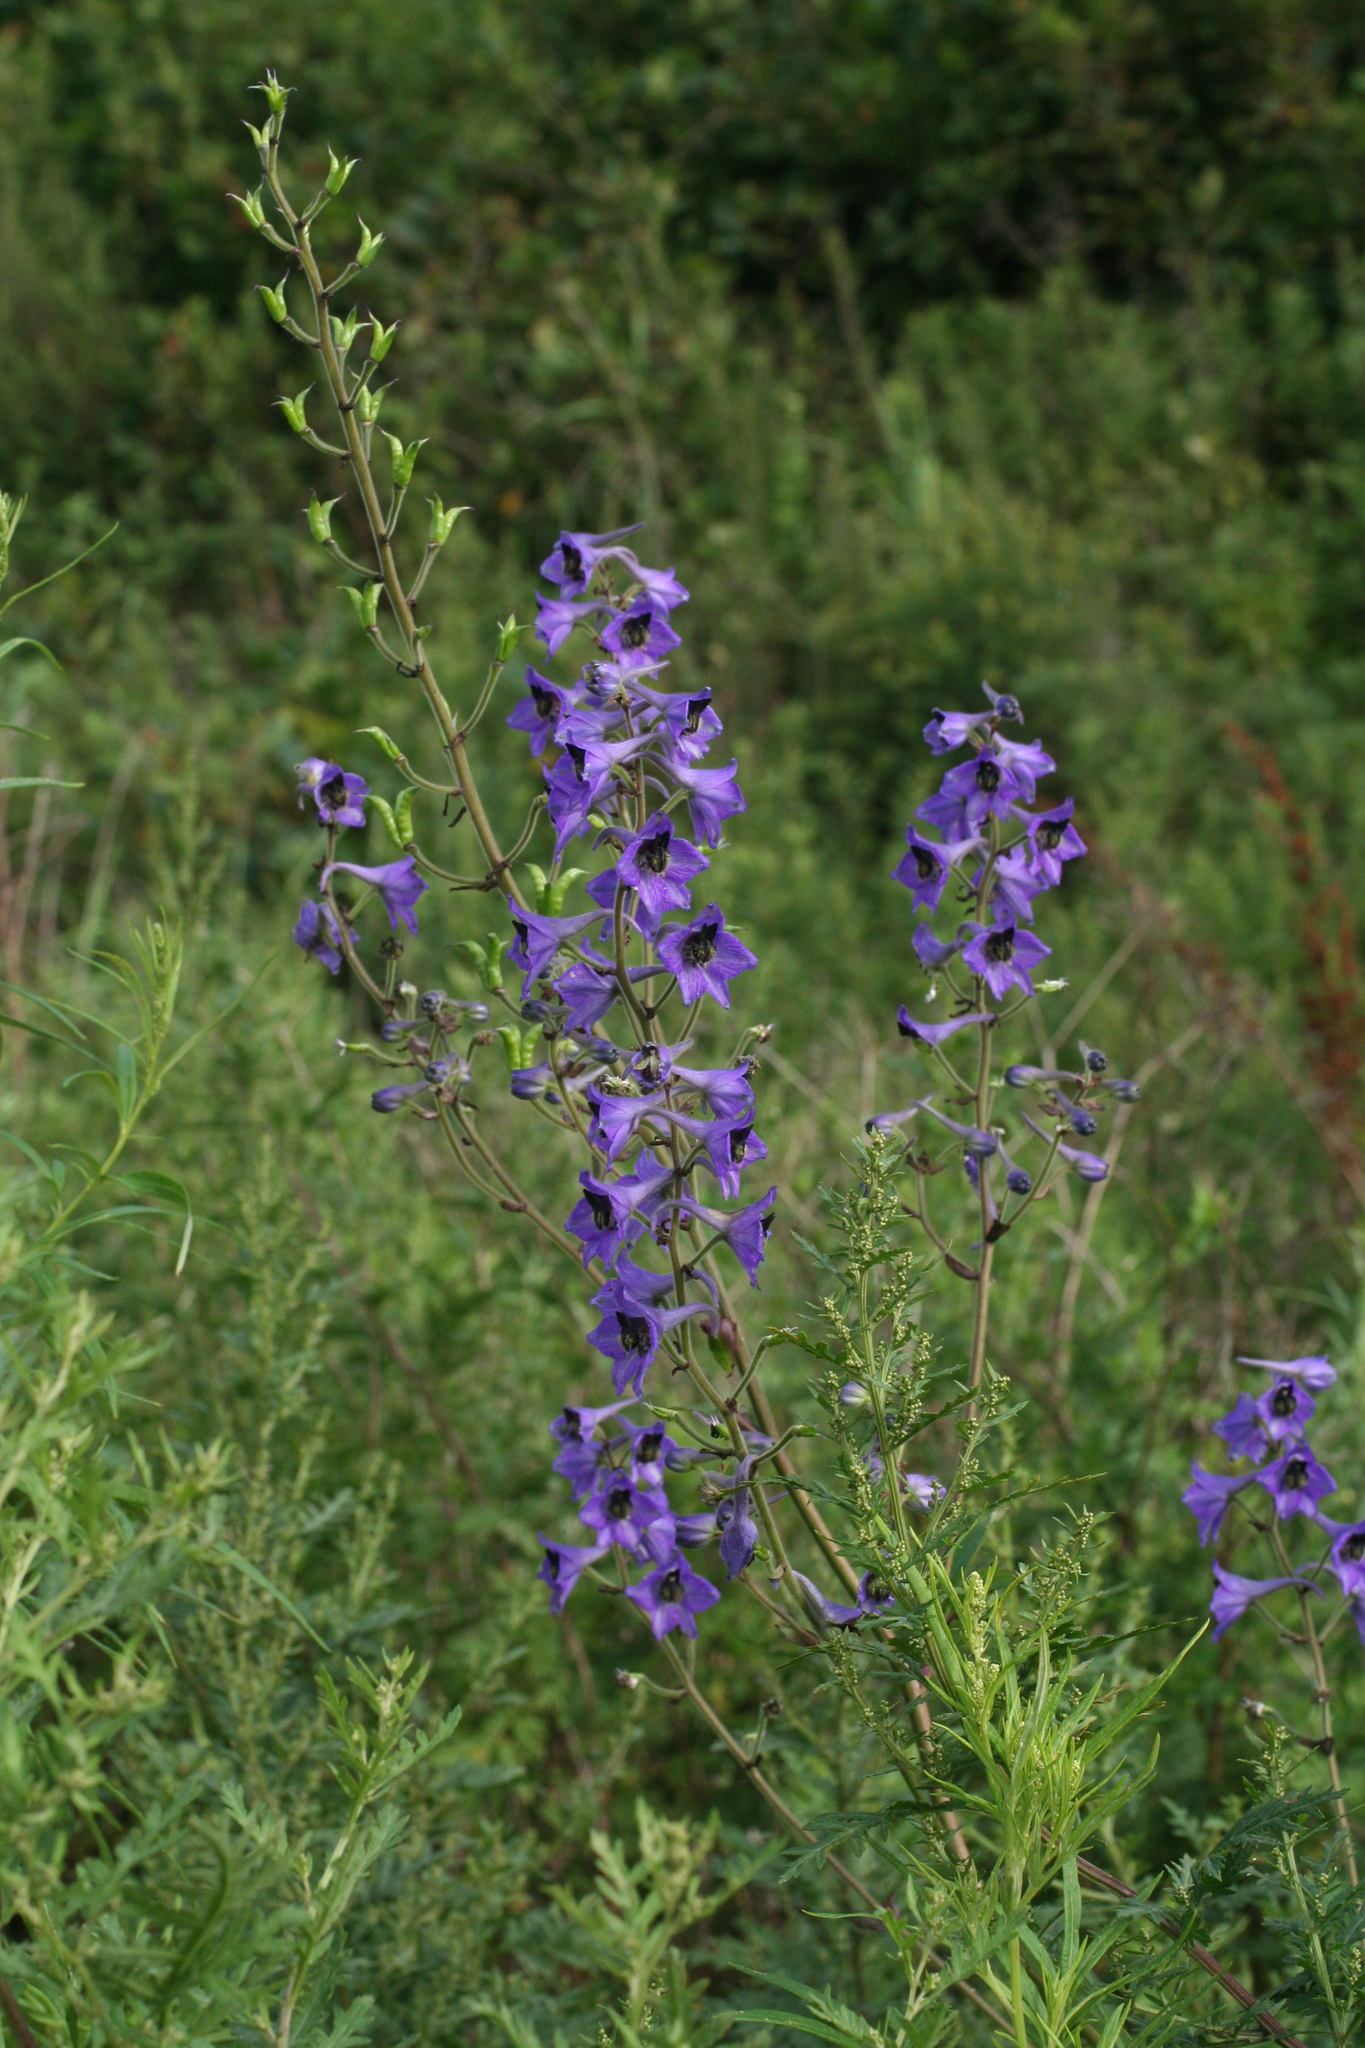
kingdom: Plantae
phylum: Tracheophyta
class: Magnoliopsida
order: Ranunculales
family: Ranunculaceae
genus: Delphinium
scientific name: Delphinium maackianum
